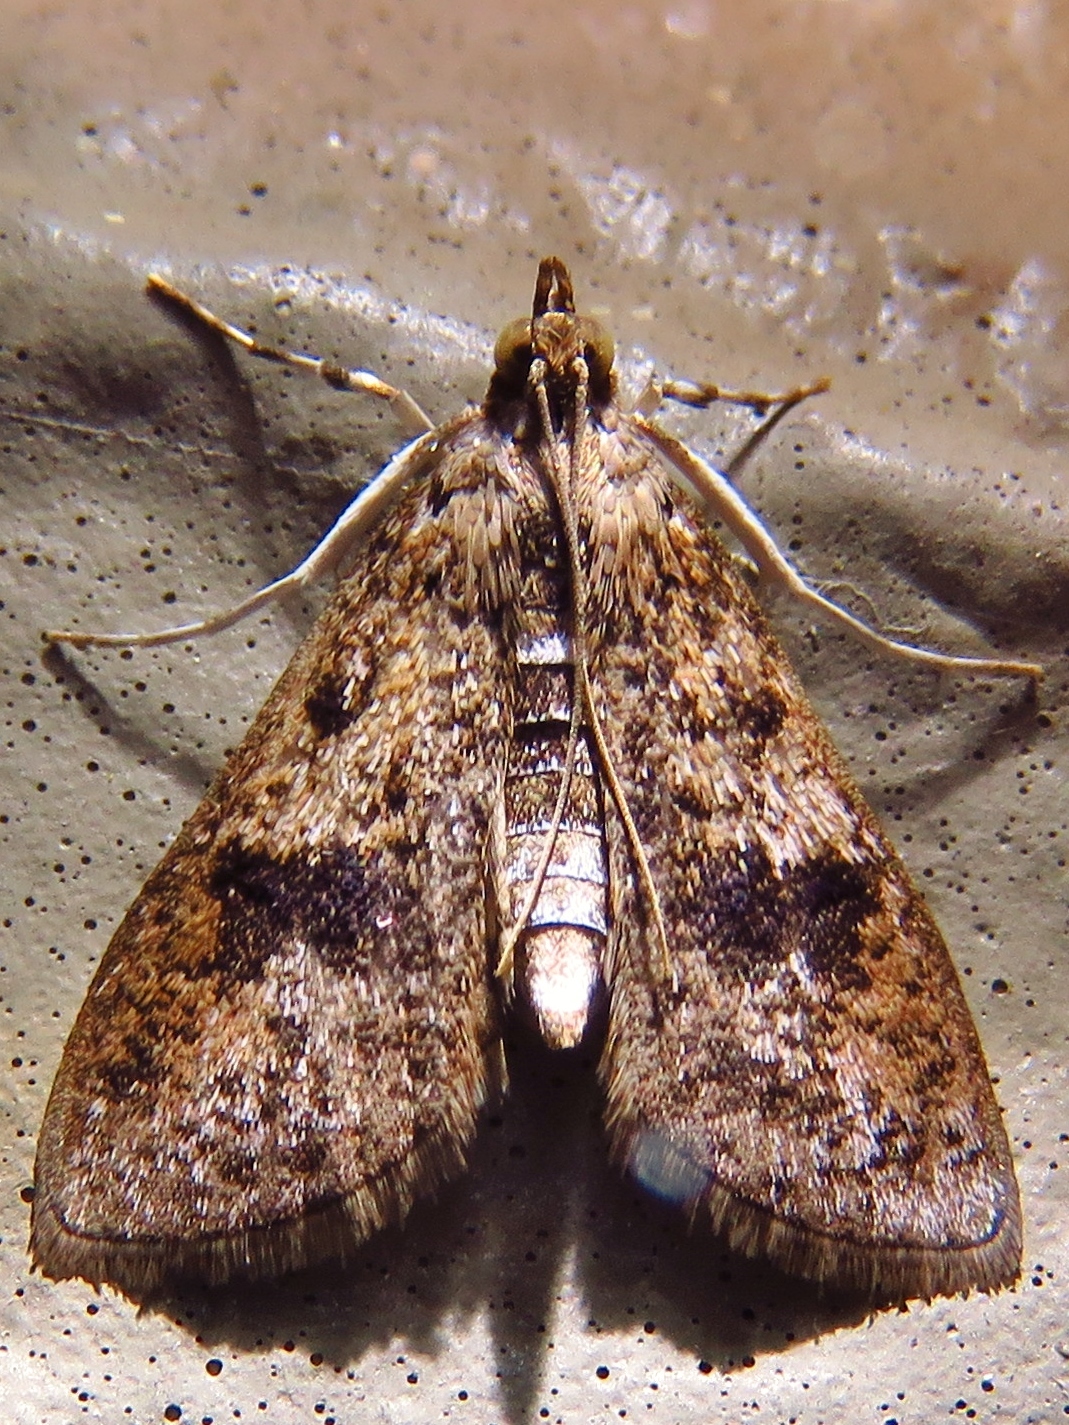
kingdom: Animalia
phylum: Arthropoda
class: Insecta
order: Lepidoptera
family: Crambidae
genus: Palpita
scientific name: Palpita magniferalis
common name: Splendid palpita moth
